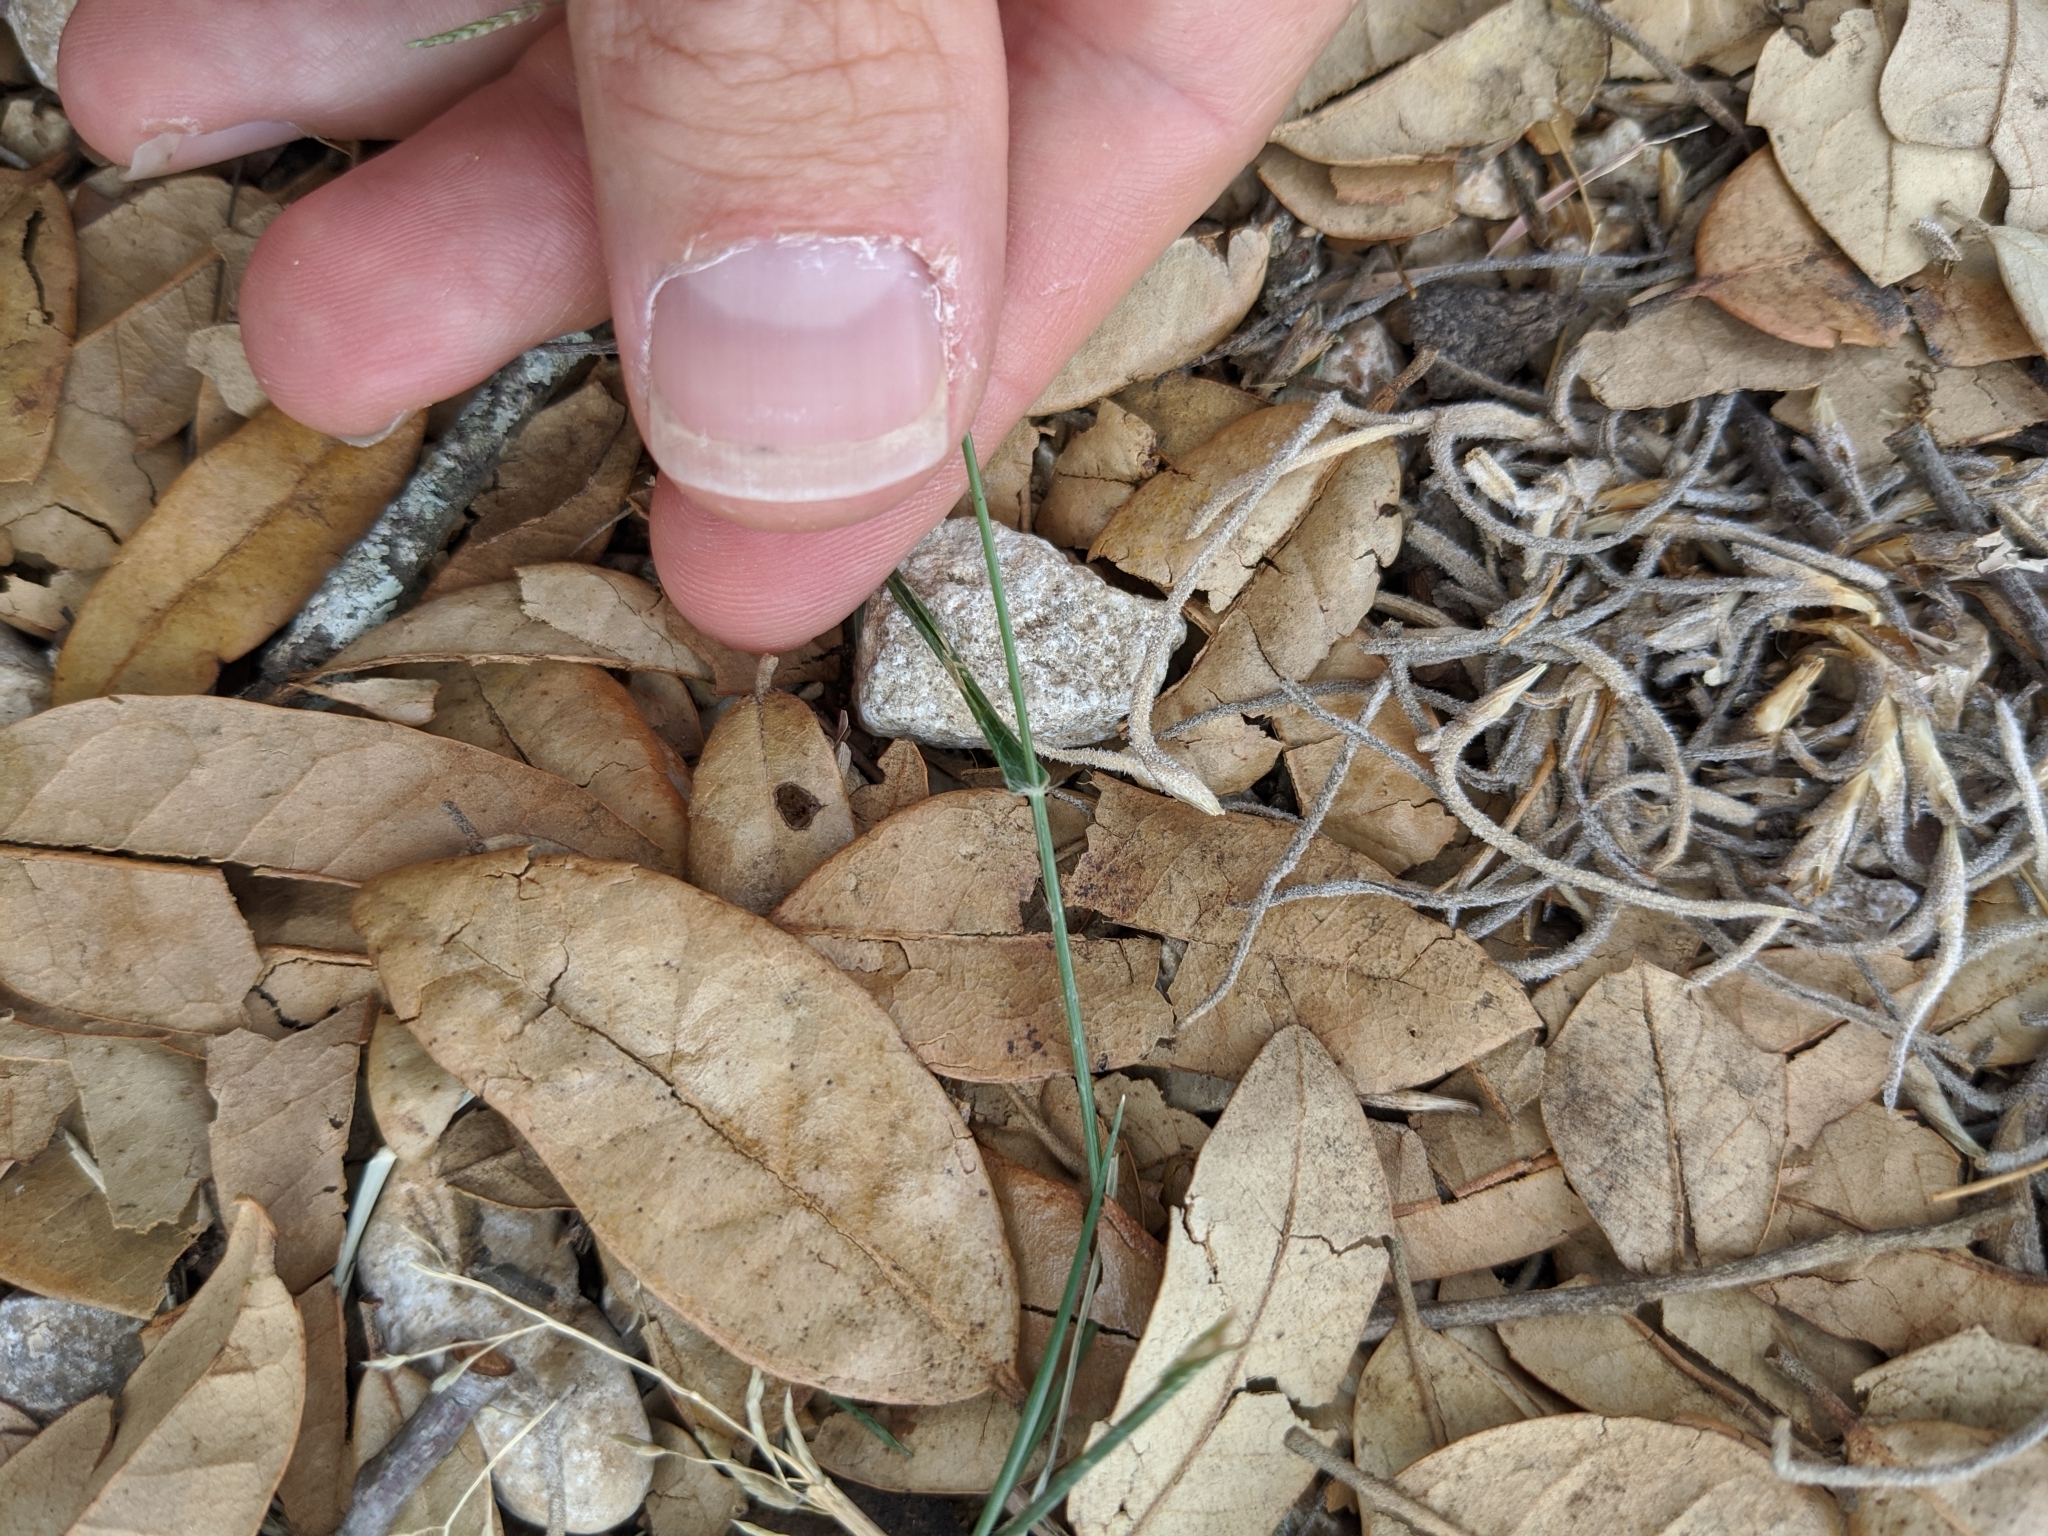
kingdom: Plantae
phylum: Tracheophyta
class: Liliopsida
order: Poales
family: Poaceae
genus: Eragrostis
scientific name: Eragrostis barrelieri
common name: Mediterranean lovegrass
